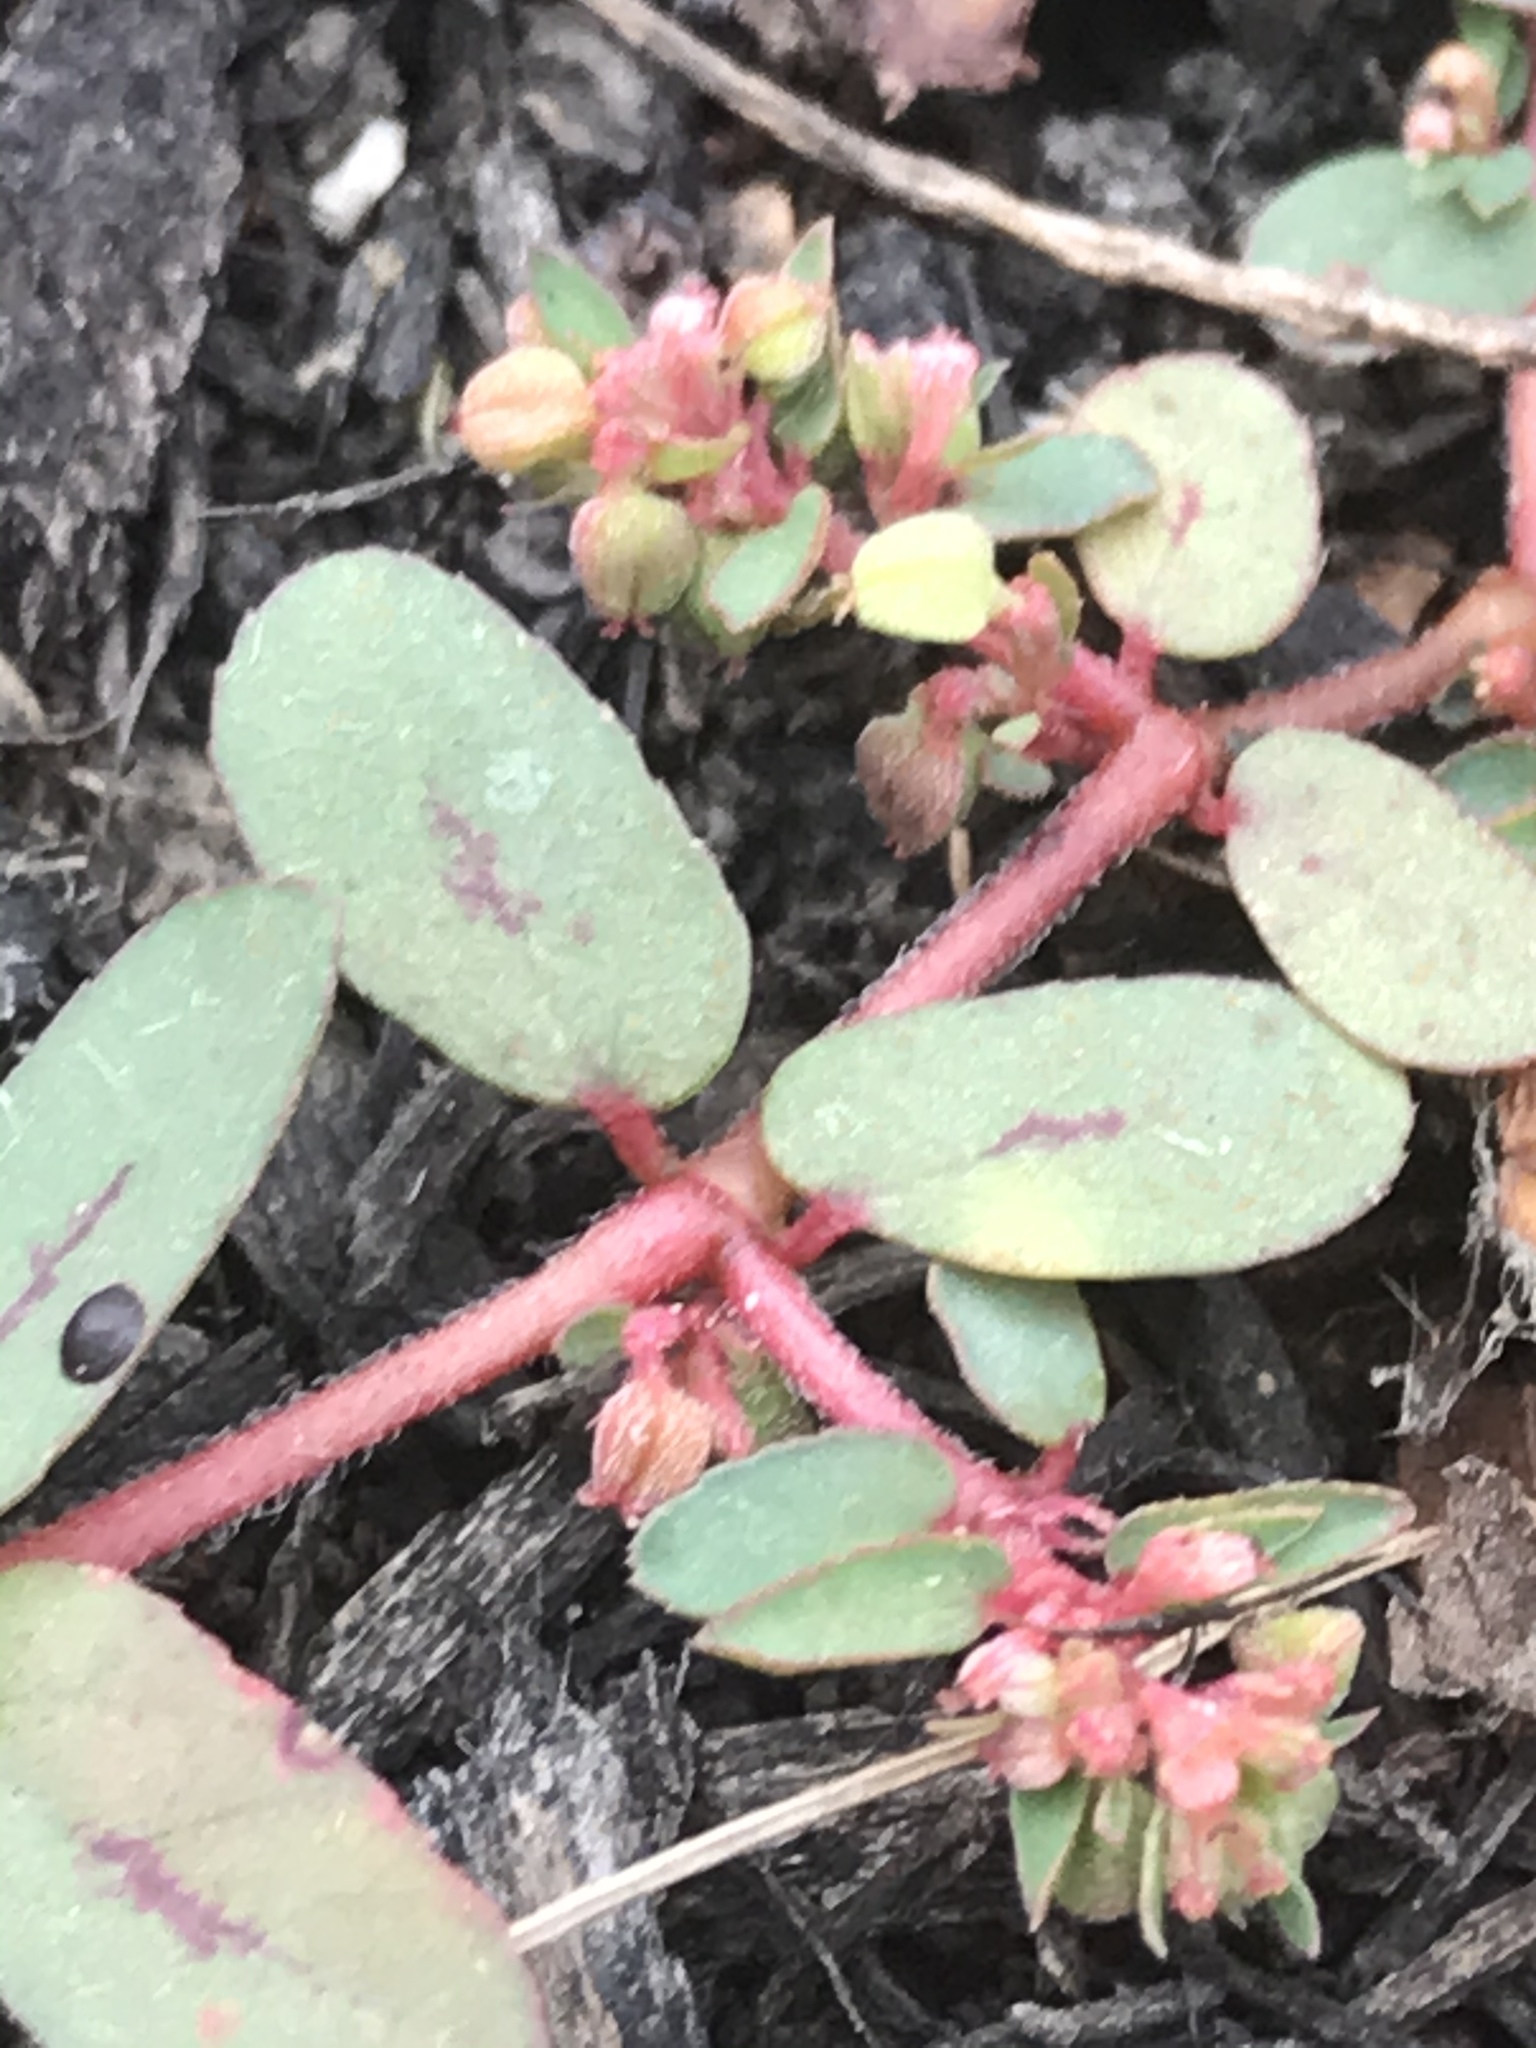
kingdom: Plantae
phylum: Tracheophyta
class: Magnoliopsida
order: Malpighiales
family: Euphorbiaceae
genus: Euphorbia
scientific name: Euphorbia maculata
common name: Spotted spurge
